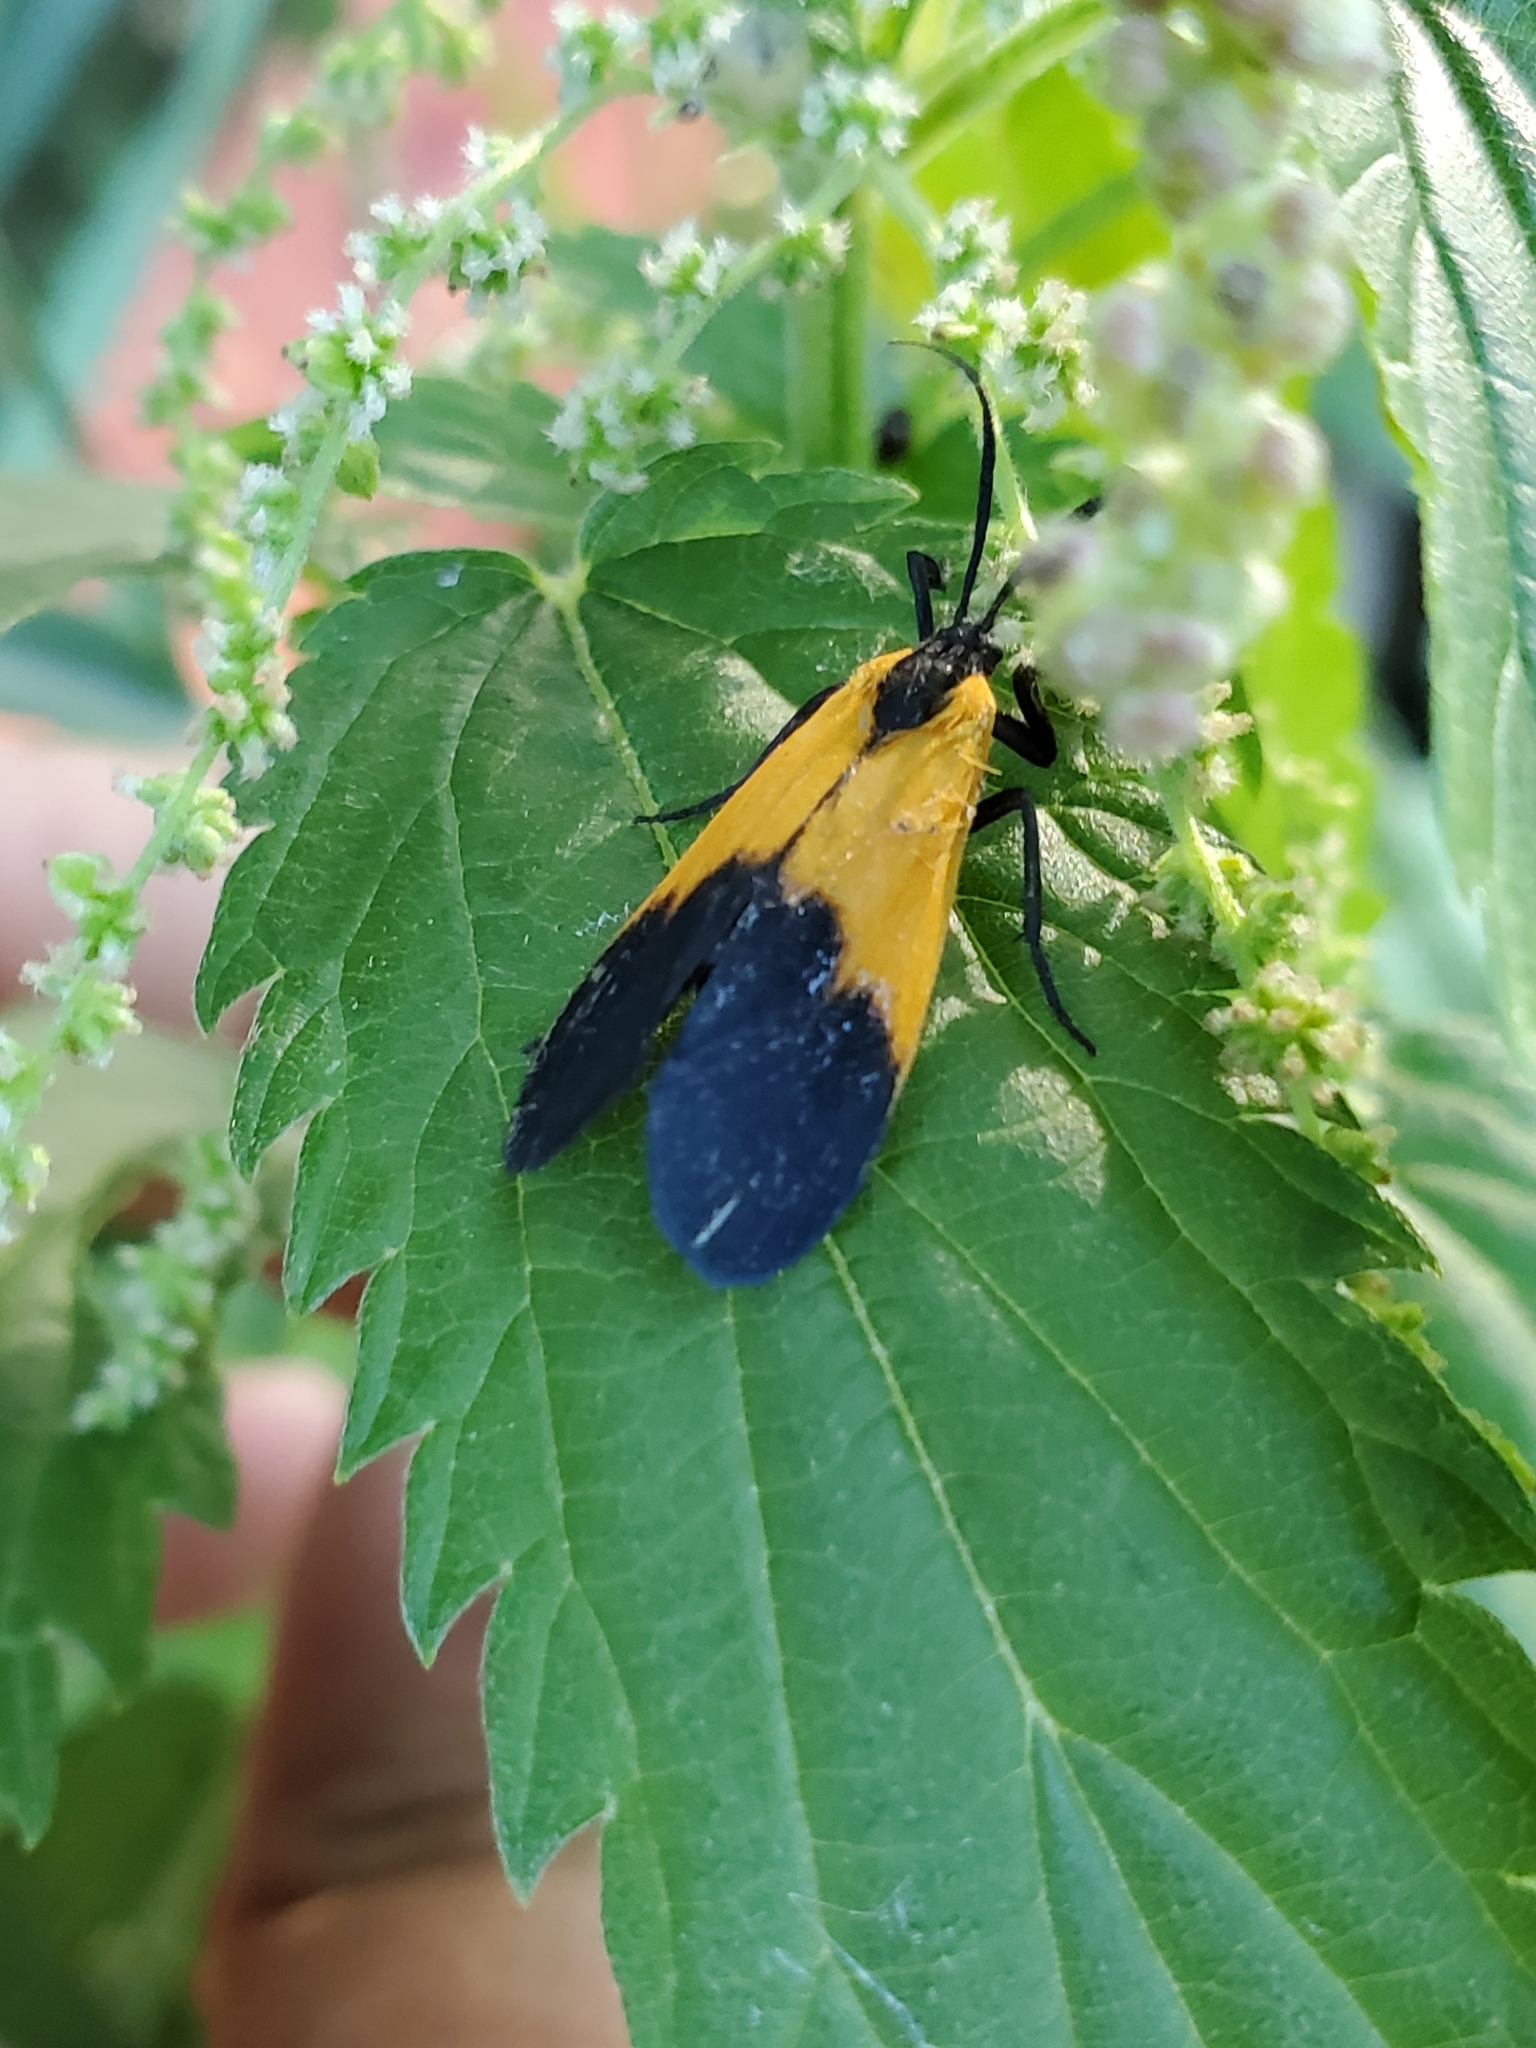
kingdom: Animalia
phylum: Arthropoda
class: Insecta
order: Lepidoptera
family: Erebidae
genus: Lycomorpha
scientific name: Lycomorpha pholus
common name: Black-and-yellow lichen moth
